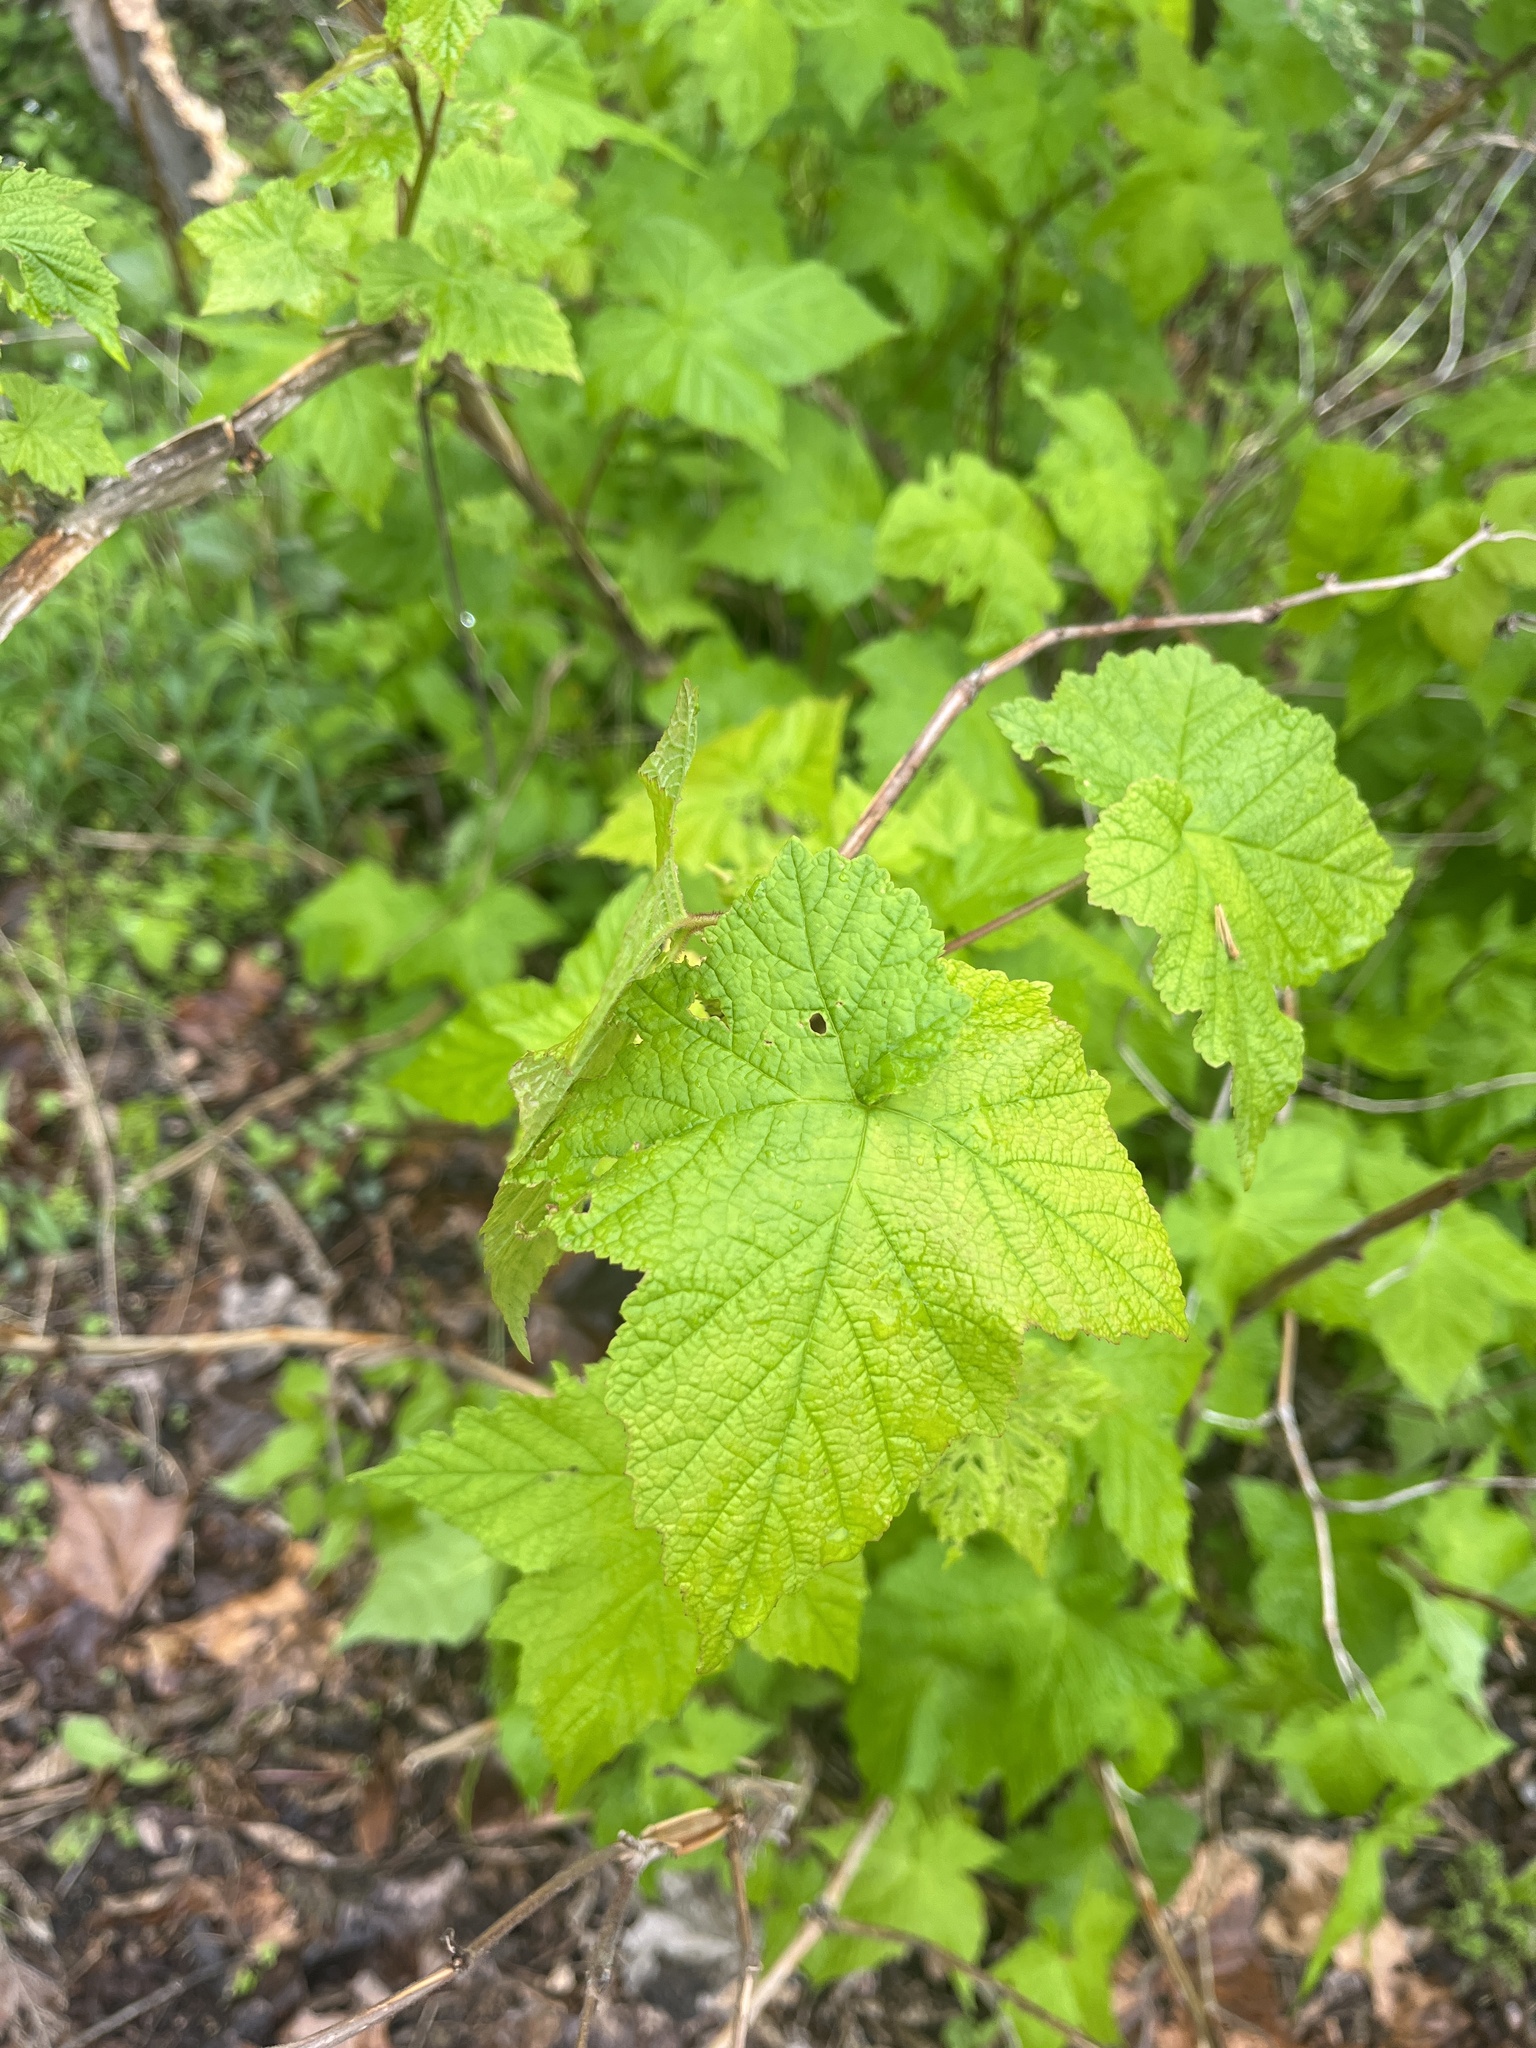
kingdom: Plantae
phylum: Tracheophyta
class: Magnoliopsida
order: Rosales
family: Rosaceae
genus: Rubus
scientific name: Rubus odoratus
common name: Purple-flowered raspberry
